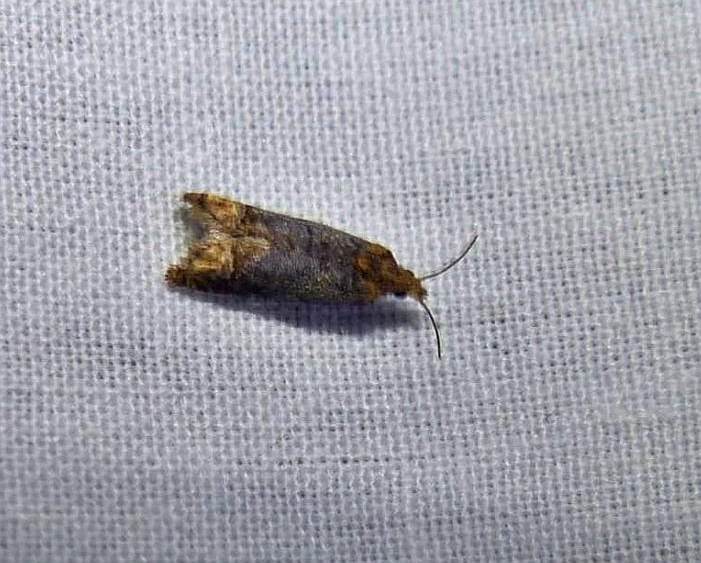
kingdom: Animalia
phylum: Arthropoda
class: Insecta
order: Lepidoptera
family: Tortricidae
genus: Eucosma
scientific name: Eucosma ochroterminana
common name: Buff-tipped eucosma moth
